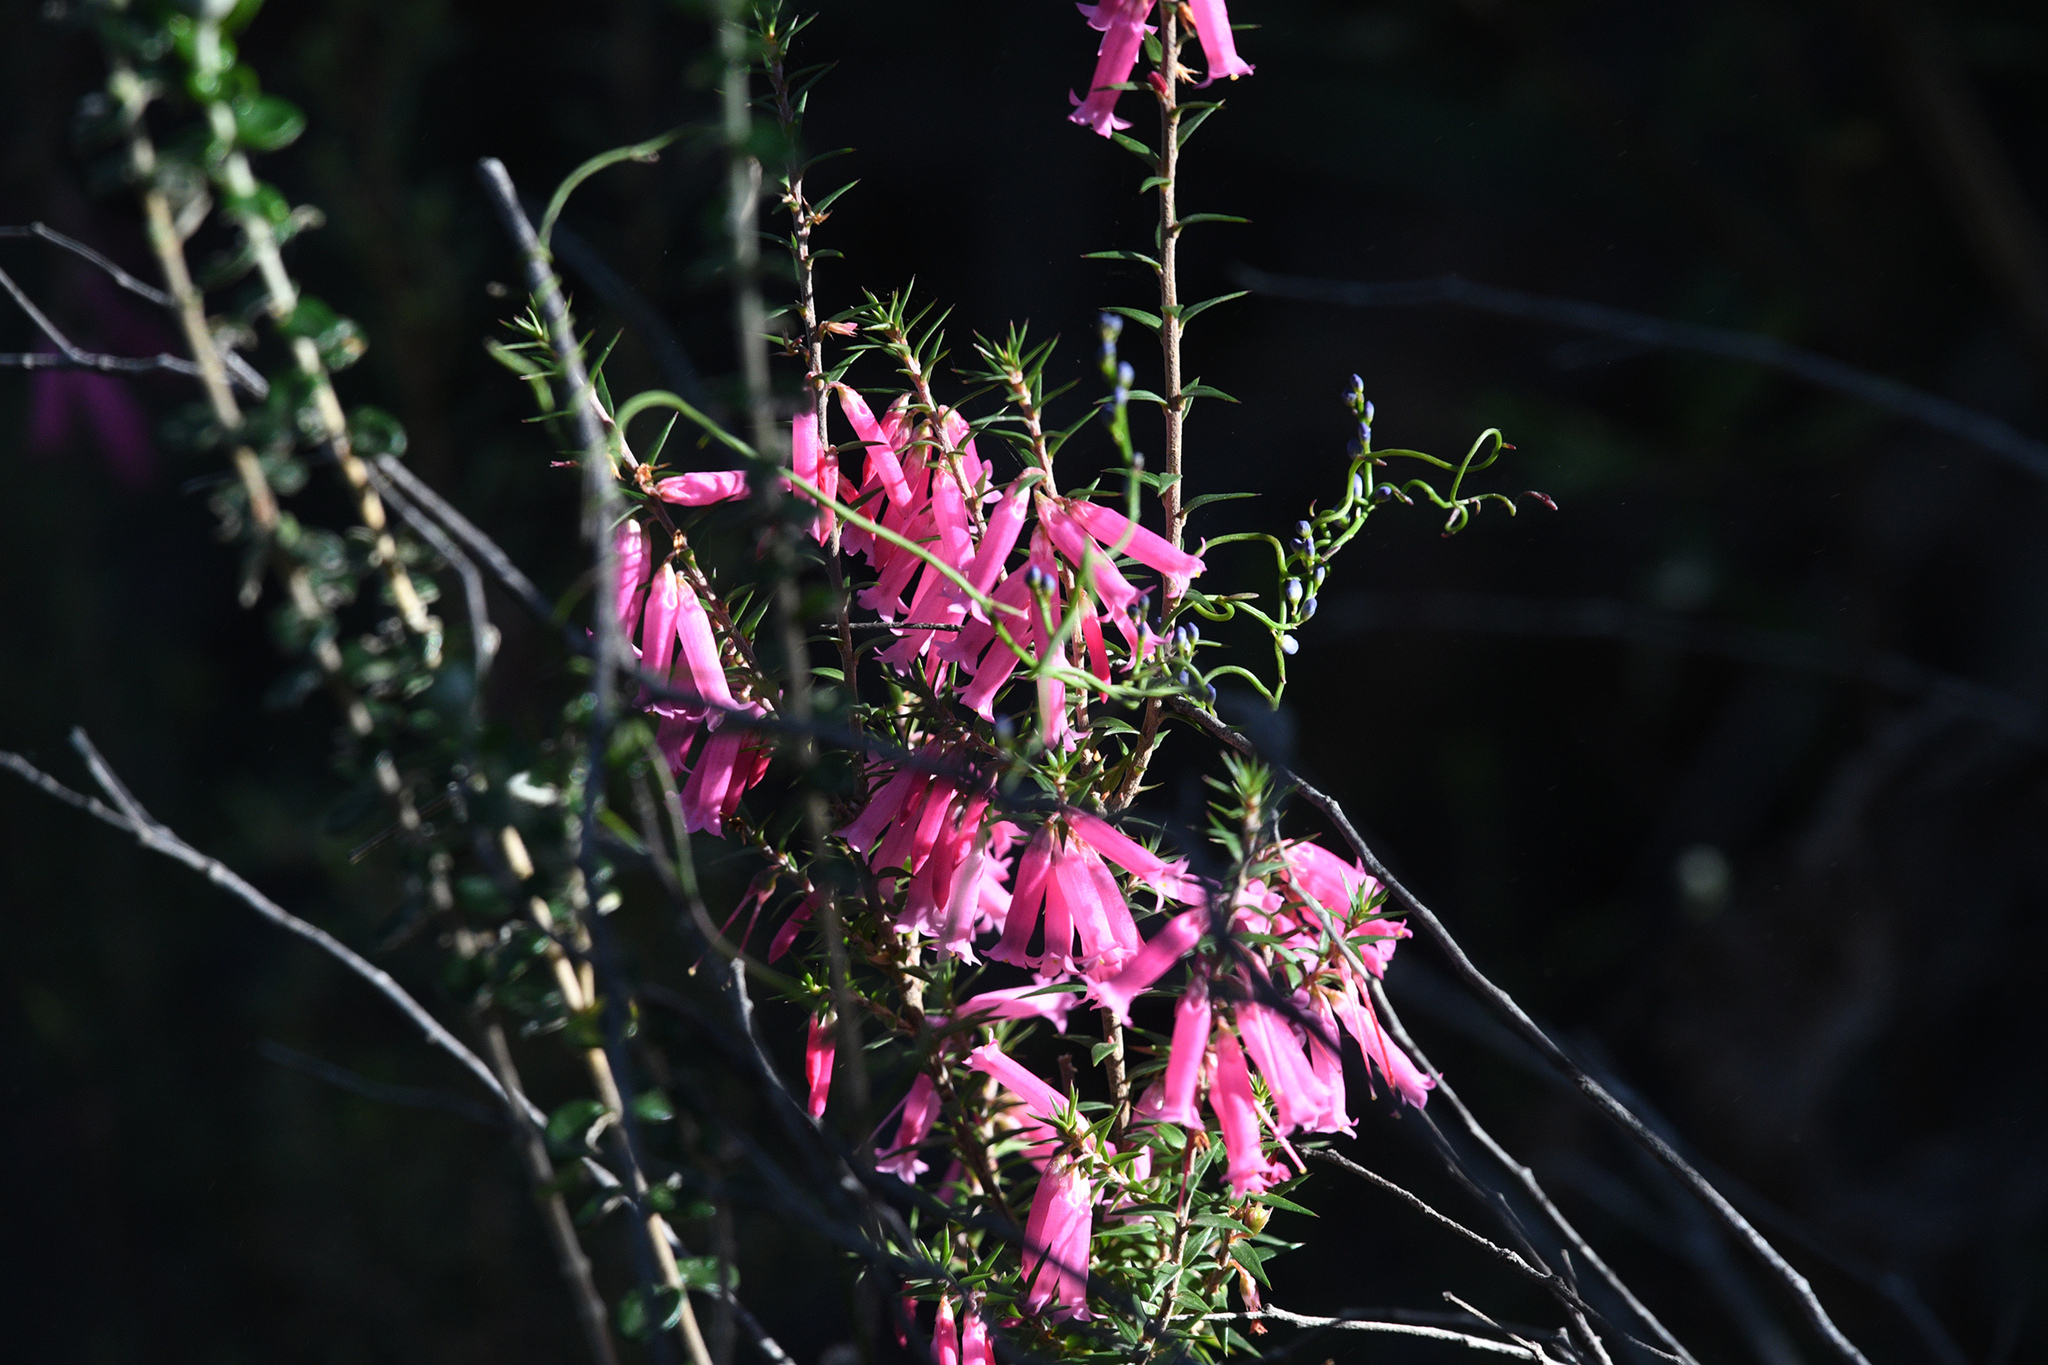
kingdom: Plantae
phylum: Tracheophyta
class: Magnoliopsida
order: Ericales
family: Ericaceae
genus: Epacris
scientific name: Epacris impressa
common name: Common-heath
